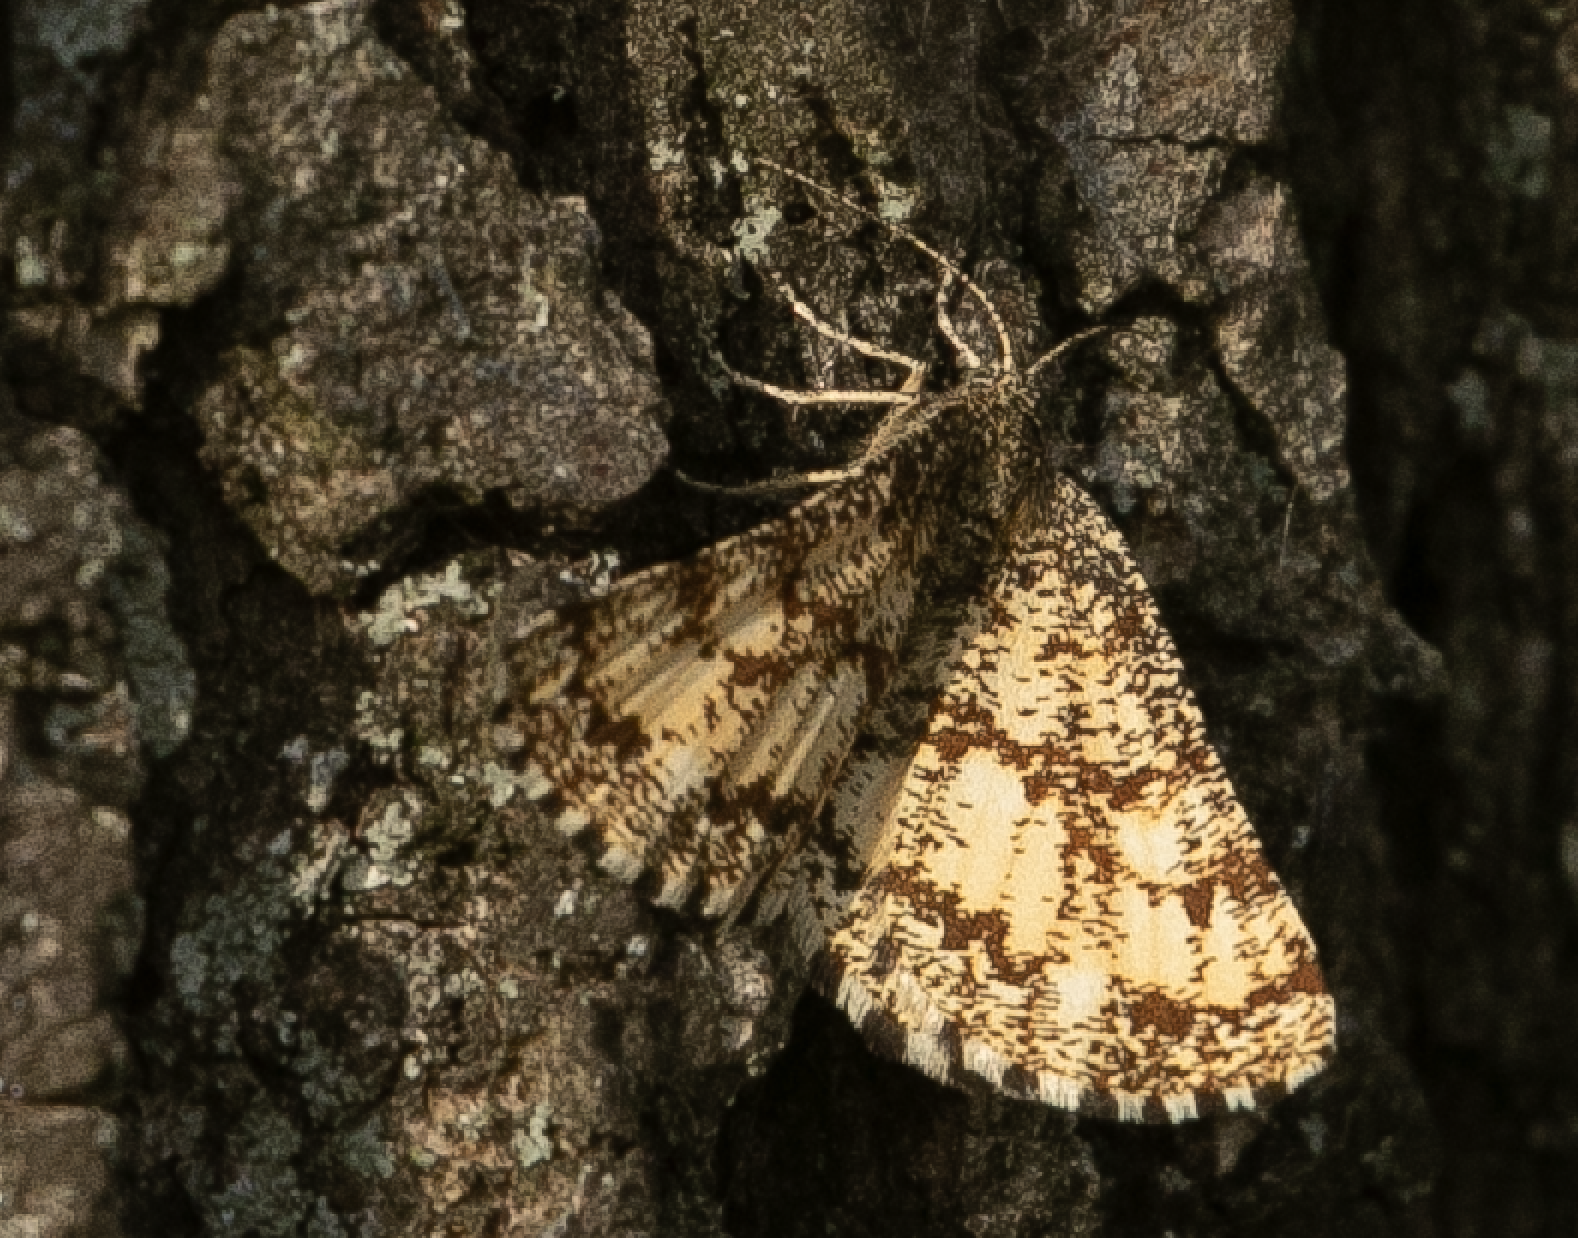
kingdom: Animalia
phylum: Arthropoda
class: Insecta
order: Lepidoptera
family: Geometridae
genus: Ematurga
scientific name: Ematurga atomaria
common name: Common heath
